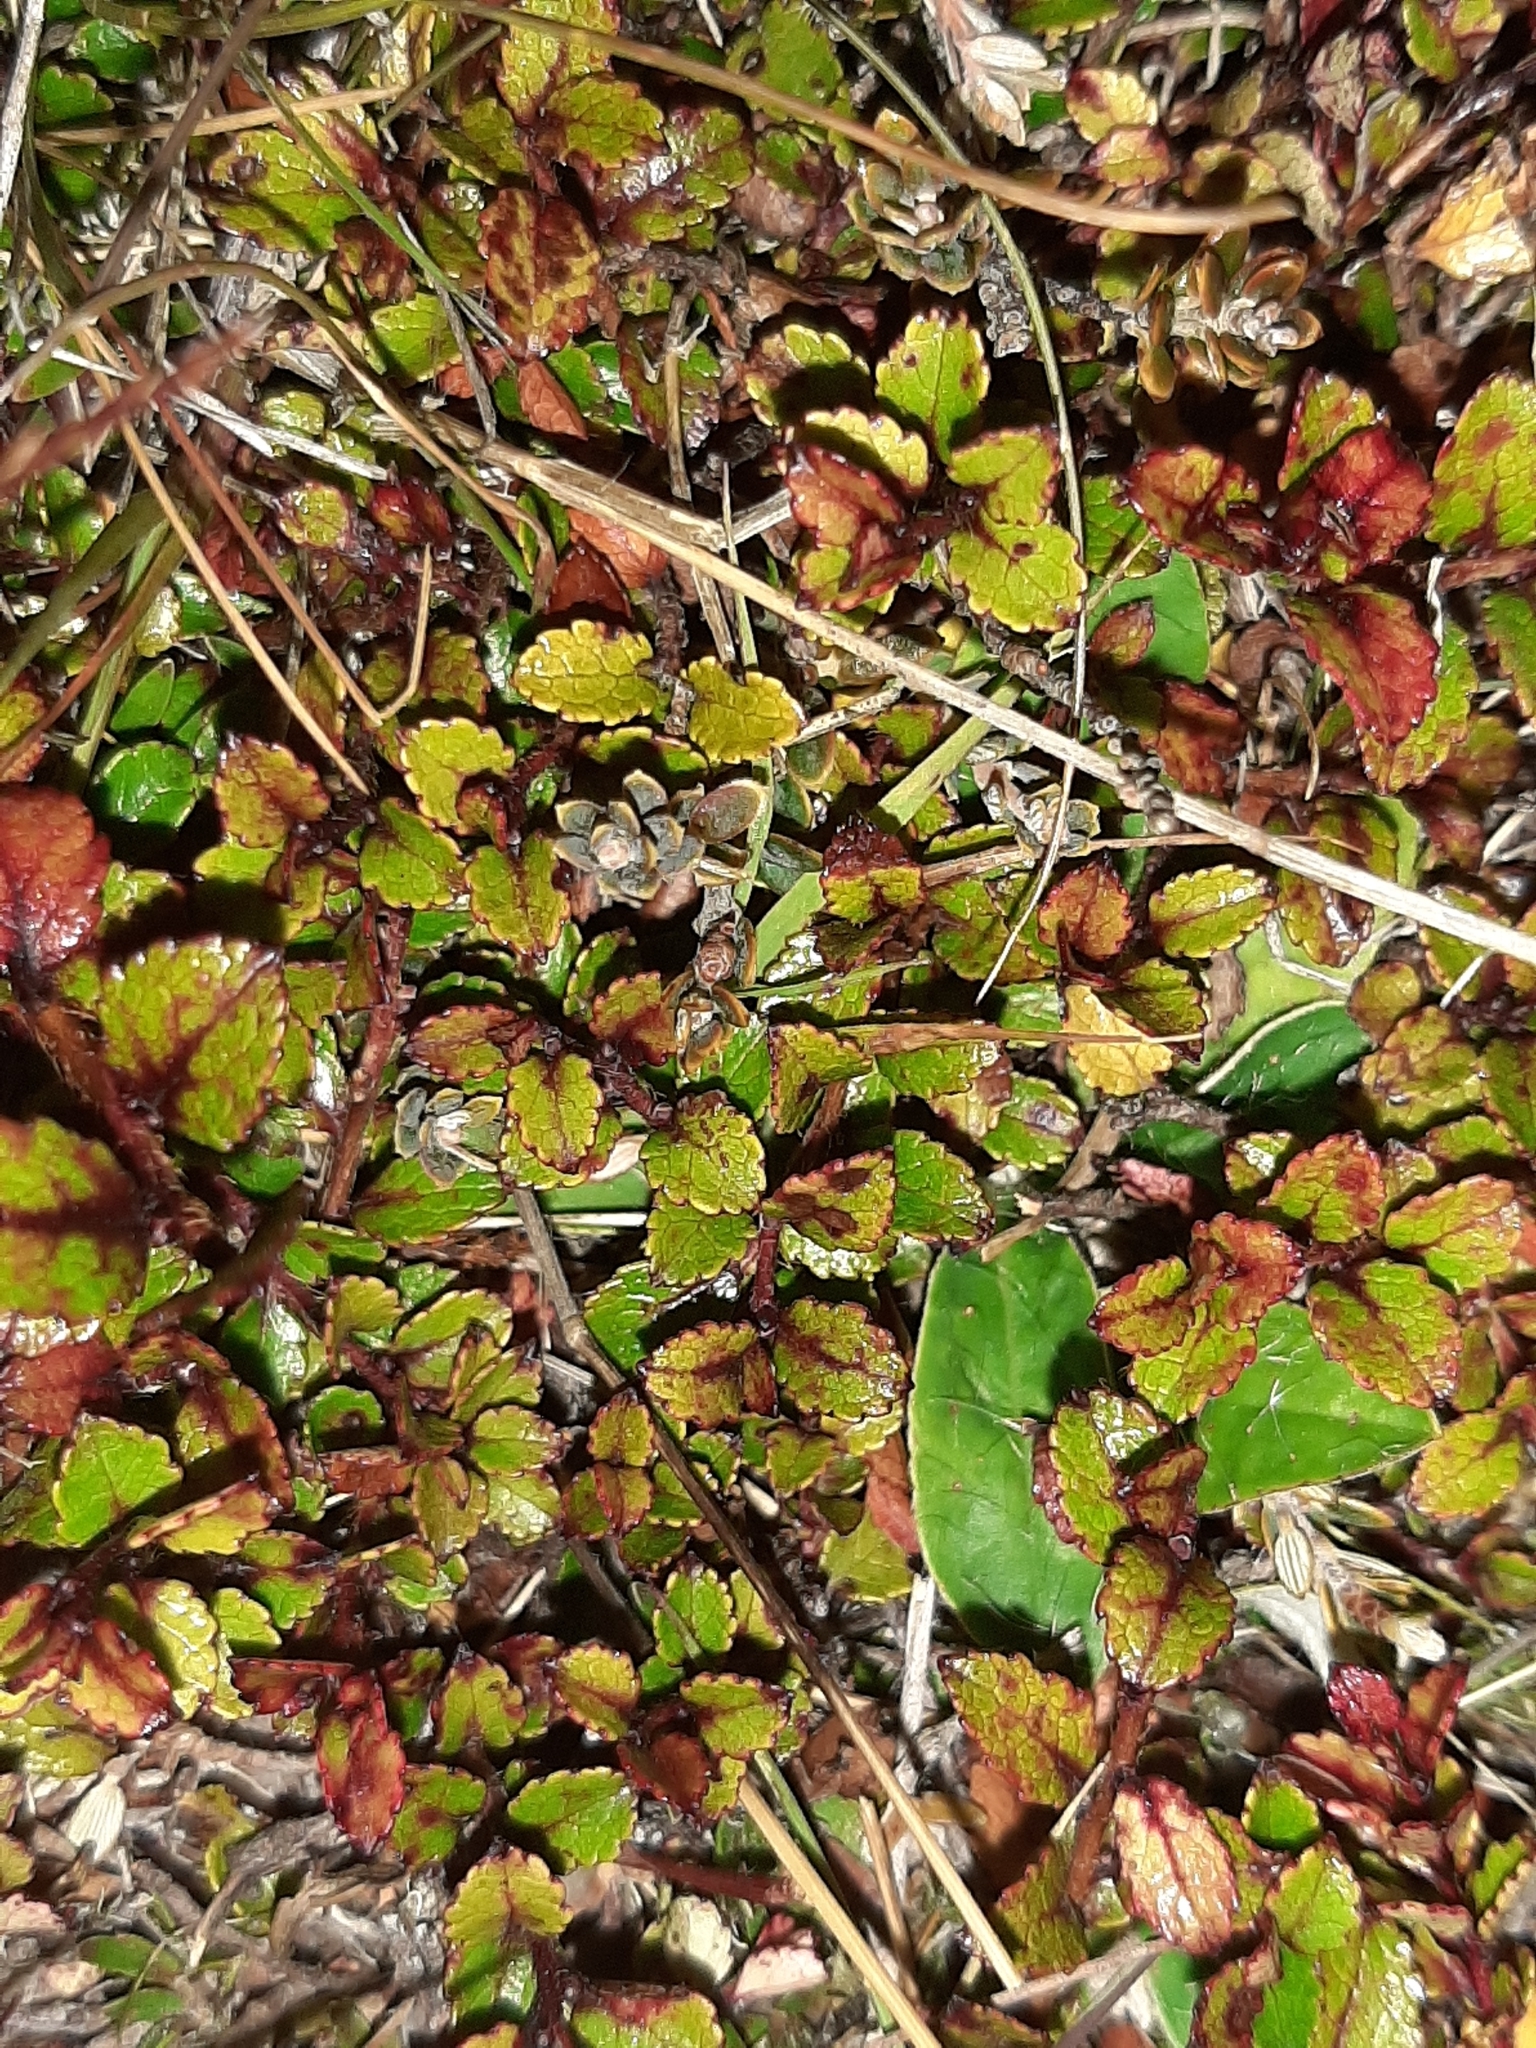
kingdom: Plantae
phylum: Tracheophyta
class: Magnoliopsida
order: Ericales
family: Ericaceae
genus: Gaultheria
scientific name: Gaultheria depressa
